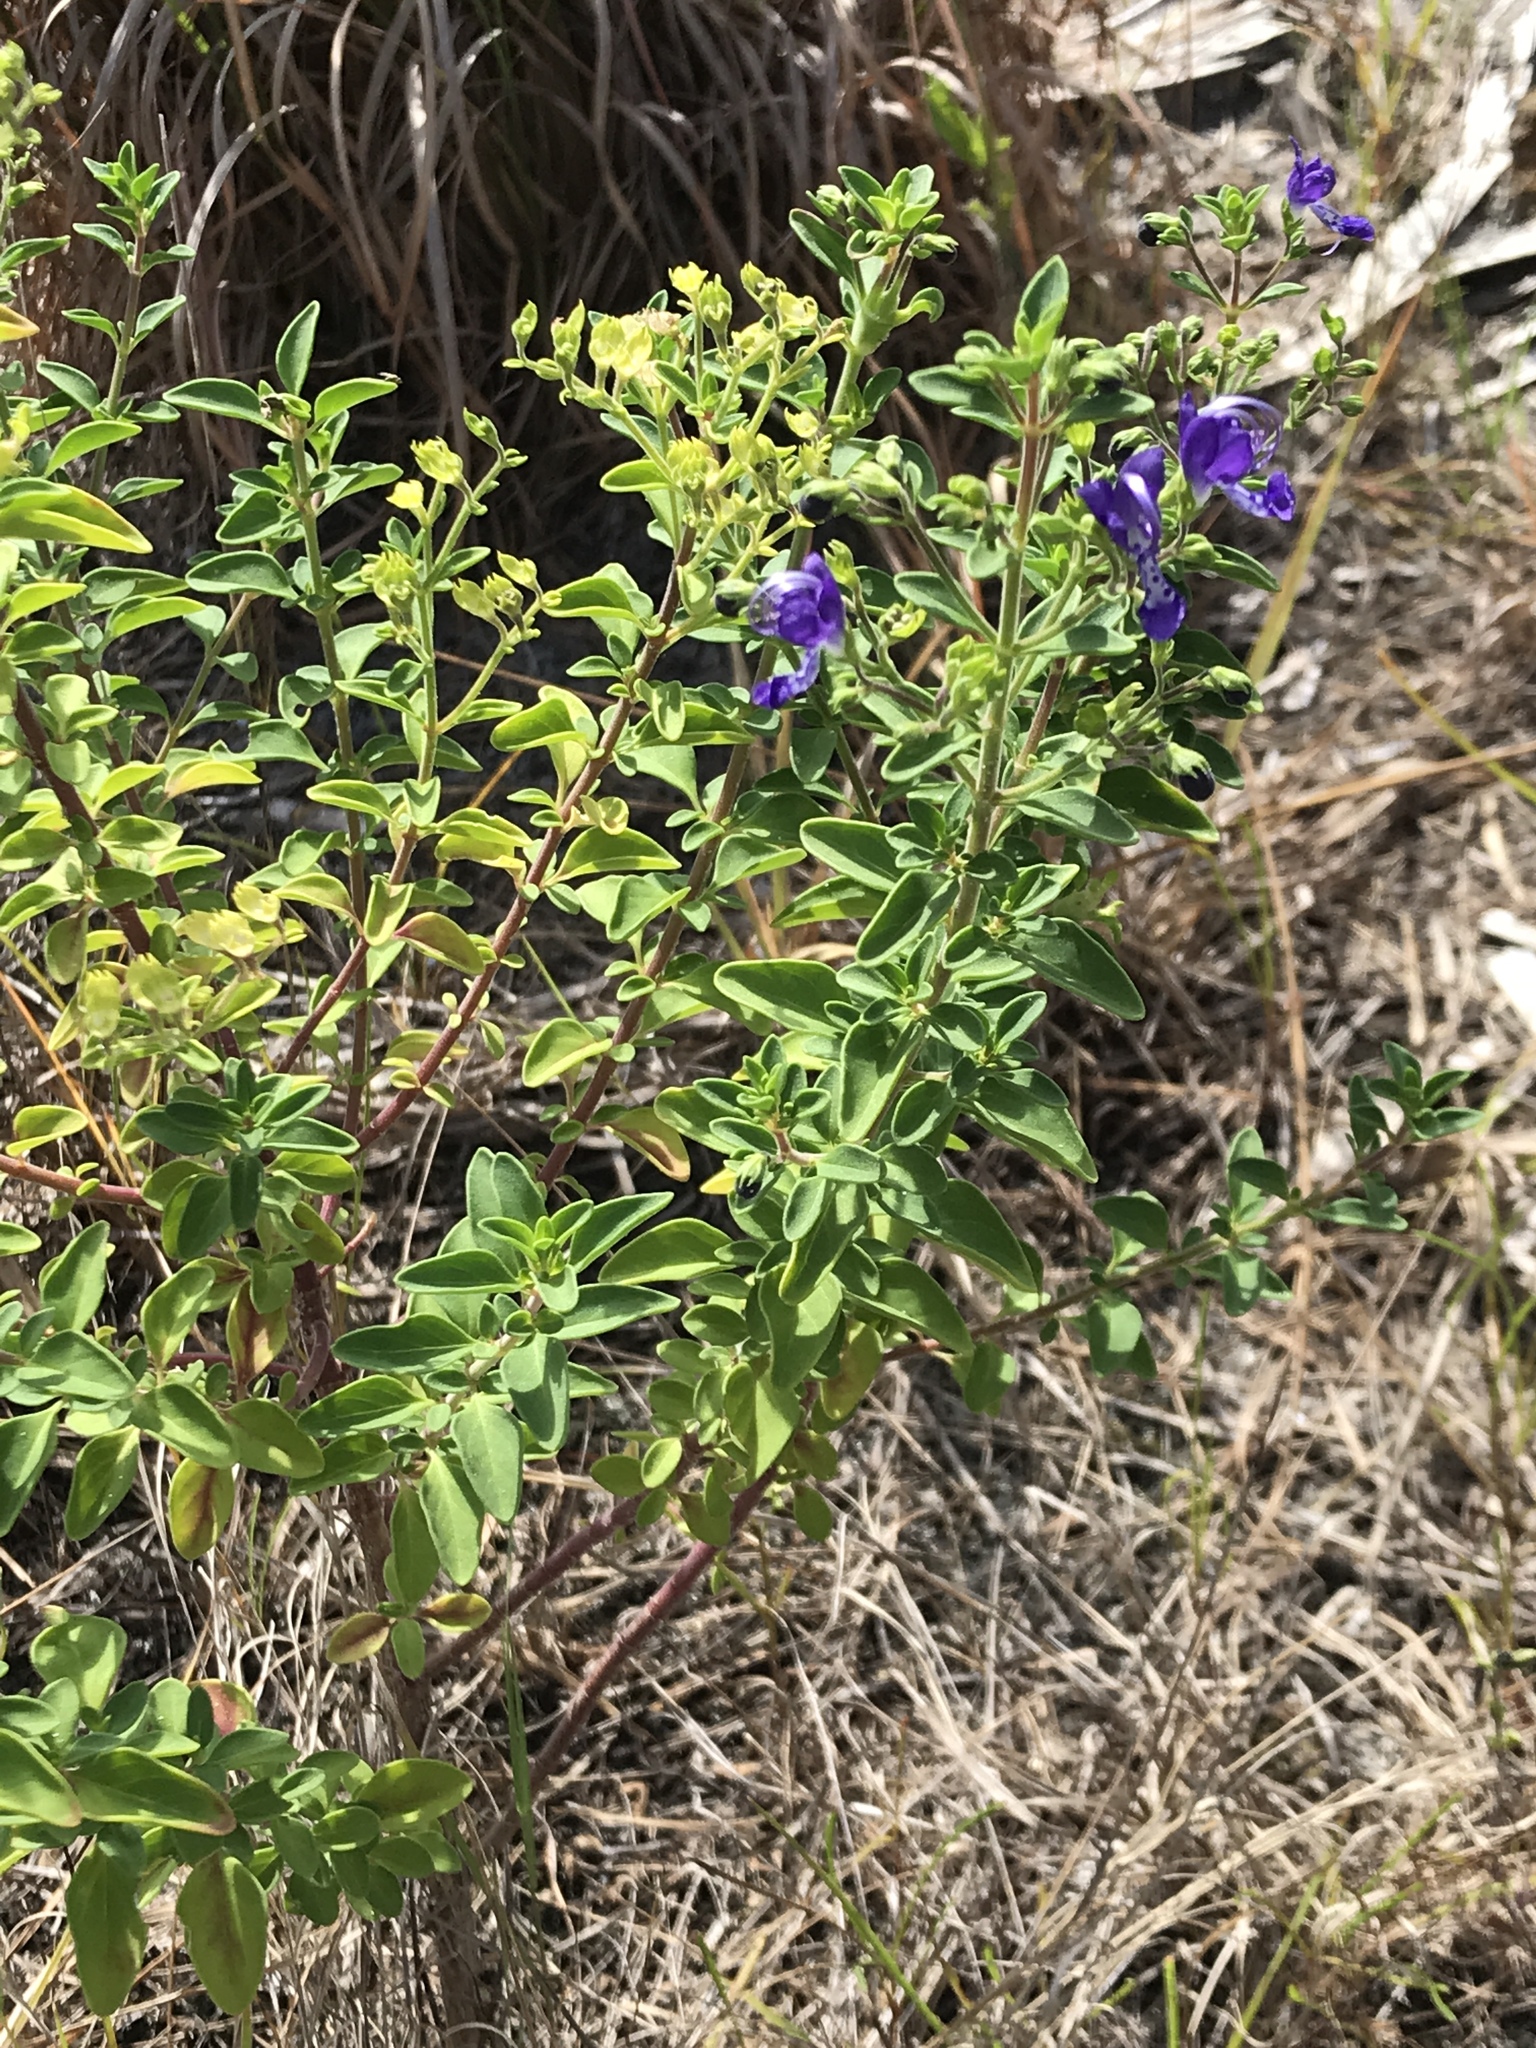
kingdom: Plantae
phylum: Tracheophyta
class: Magnoliopsida
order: Lamiales
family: Lamiaceae
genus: Trichostema
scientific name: Trichostema
